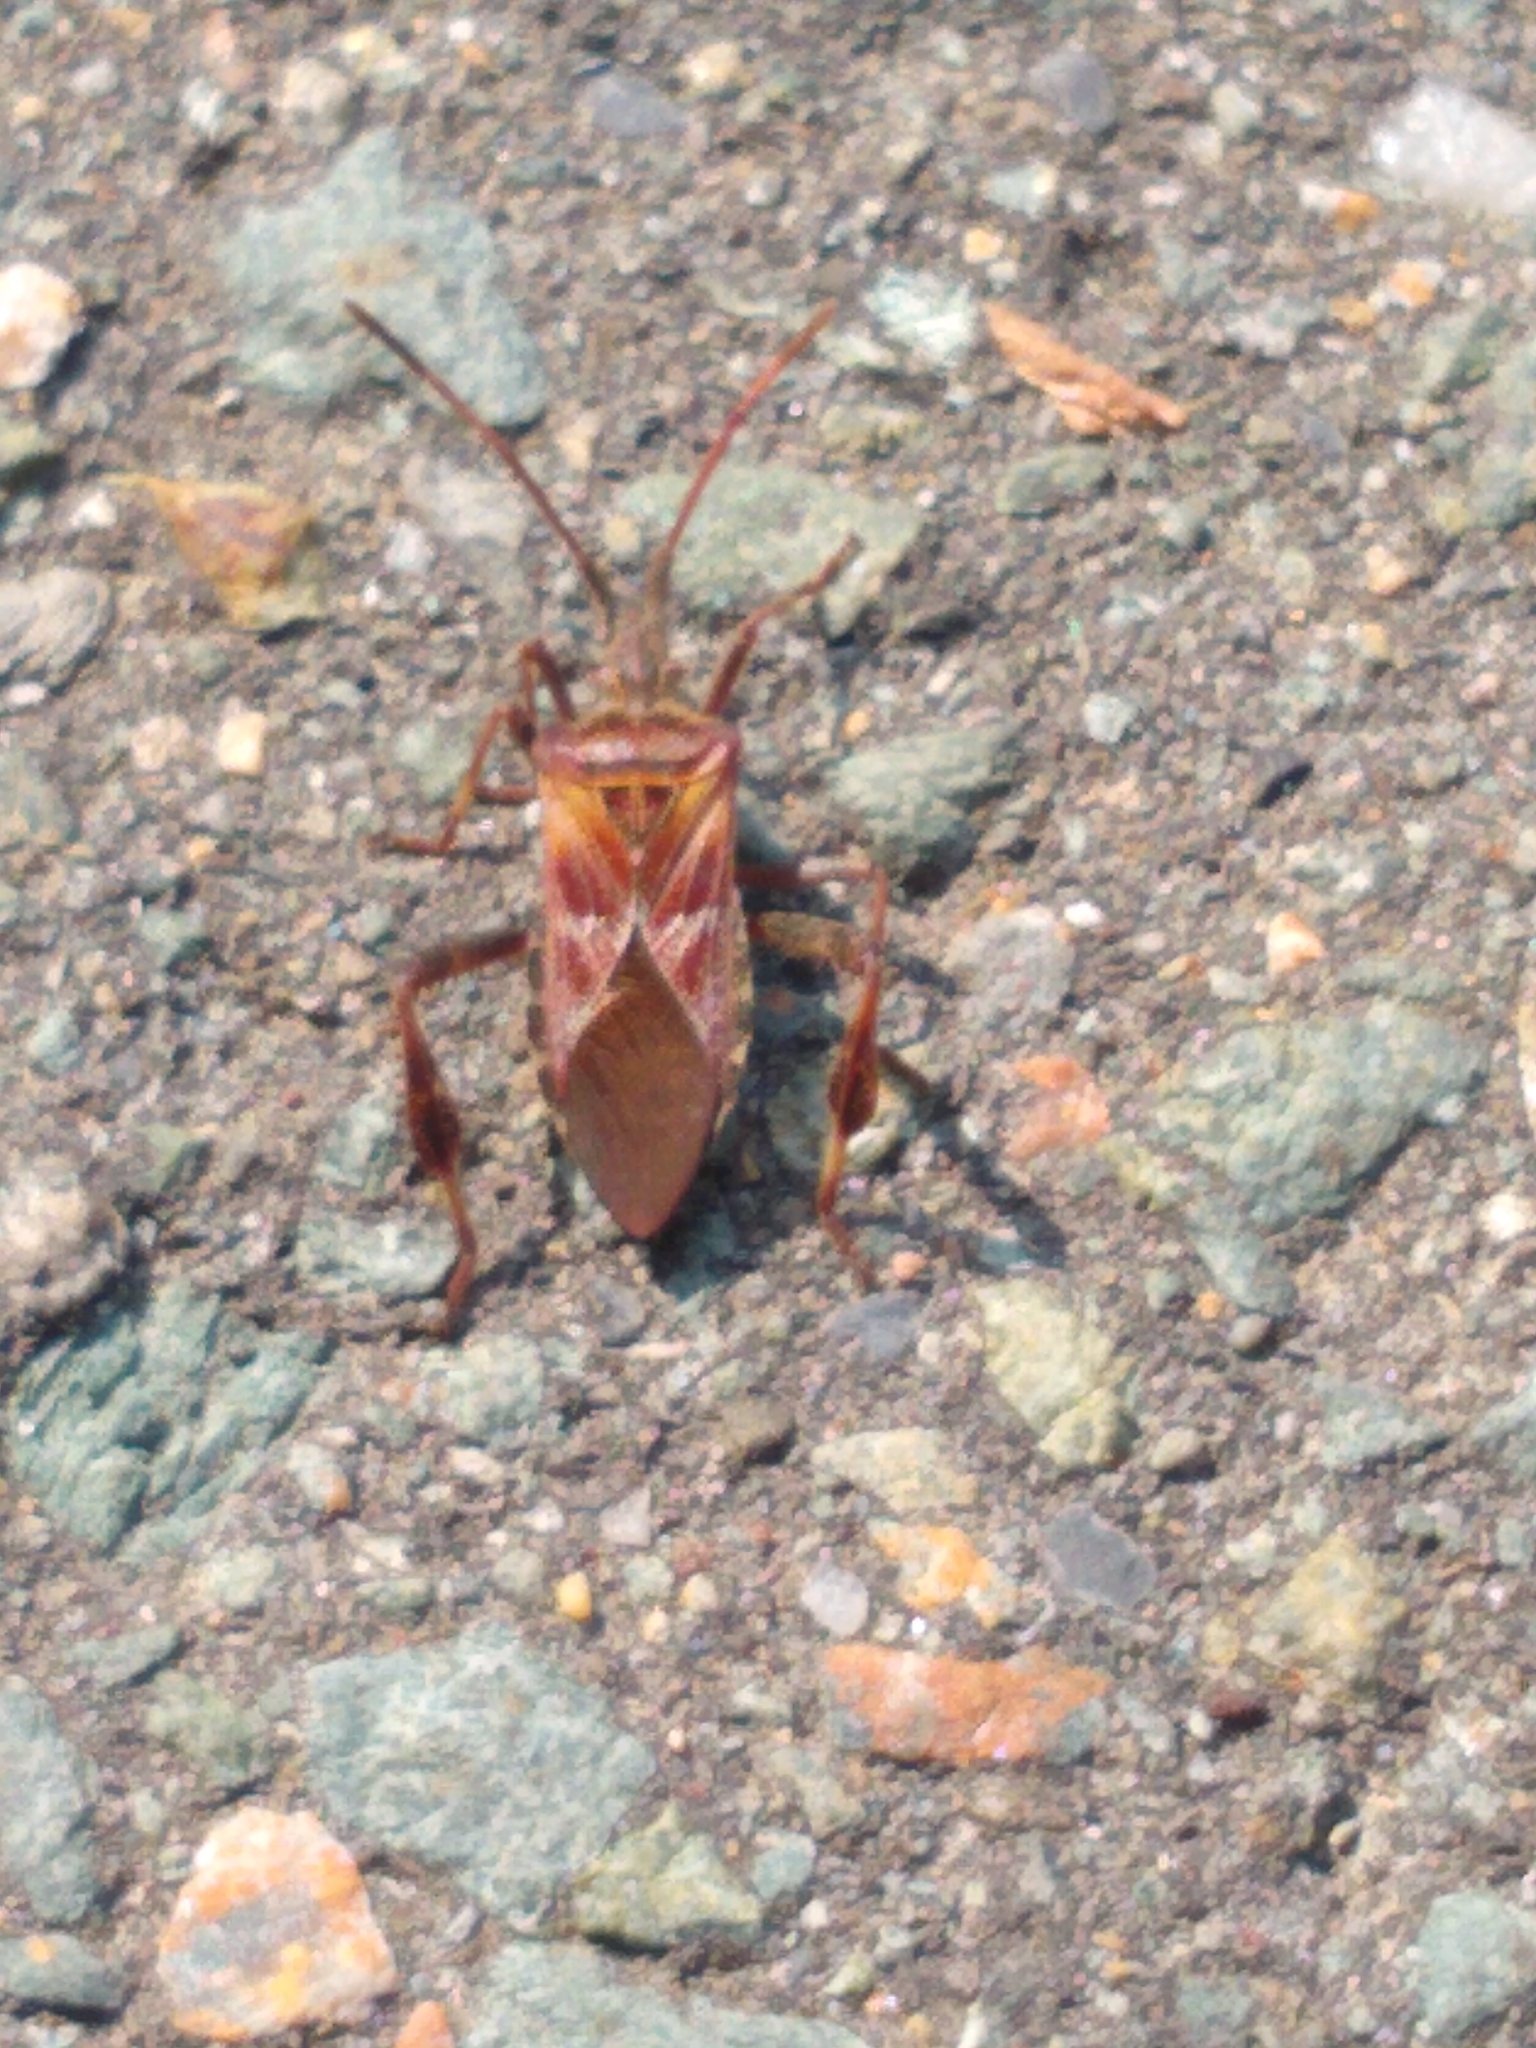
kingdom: Animalia
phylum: Arthropoda
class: Insecta
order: Hemiptera
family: Coreidae
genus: Leptoglossus
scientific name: Leptoglossus occidentalis
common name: Western conifer-seed bug
